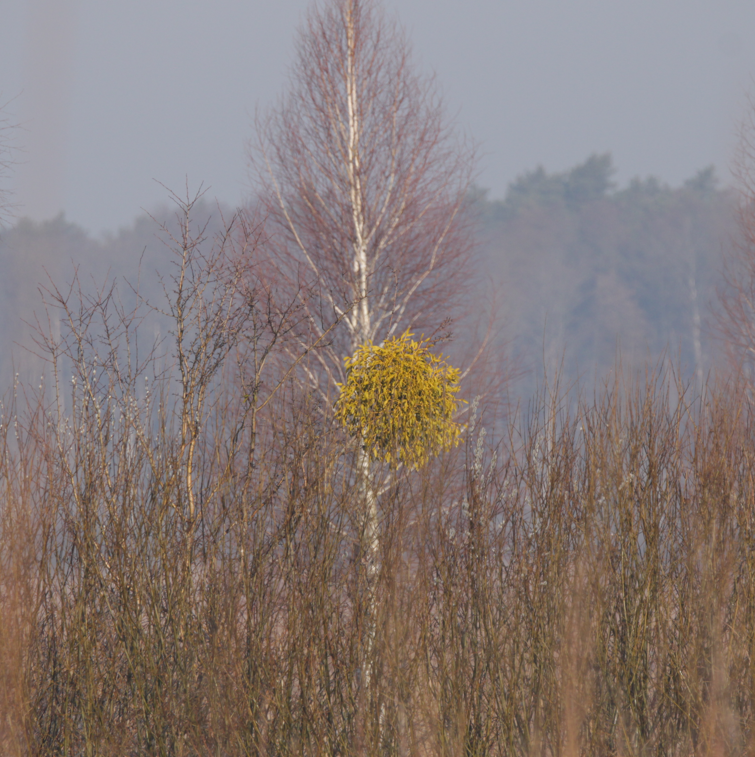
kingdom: Plantae
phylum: Tracheophyta
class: Magnoliopsida
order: Santalales
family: Viscaceae
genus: Viscum
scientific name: Viscum album
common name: Mistletoe
